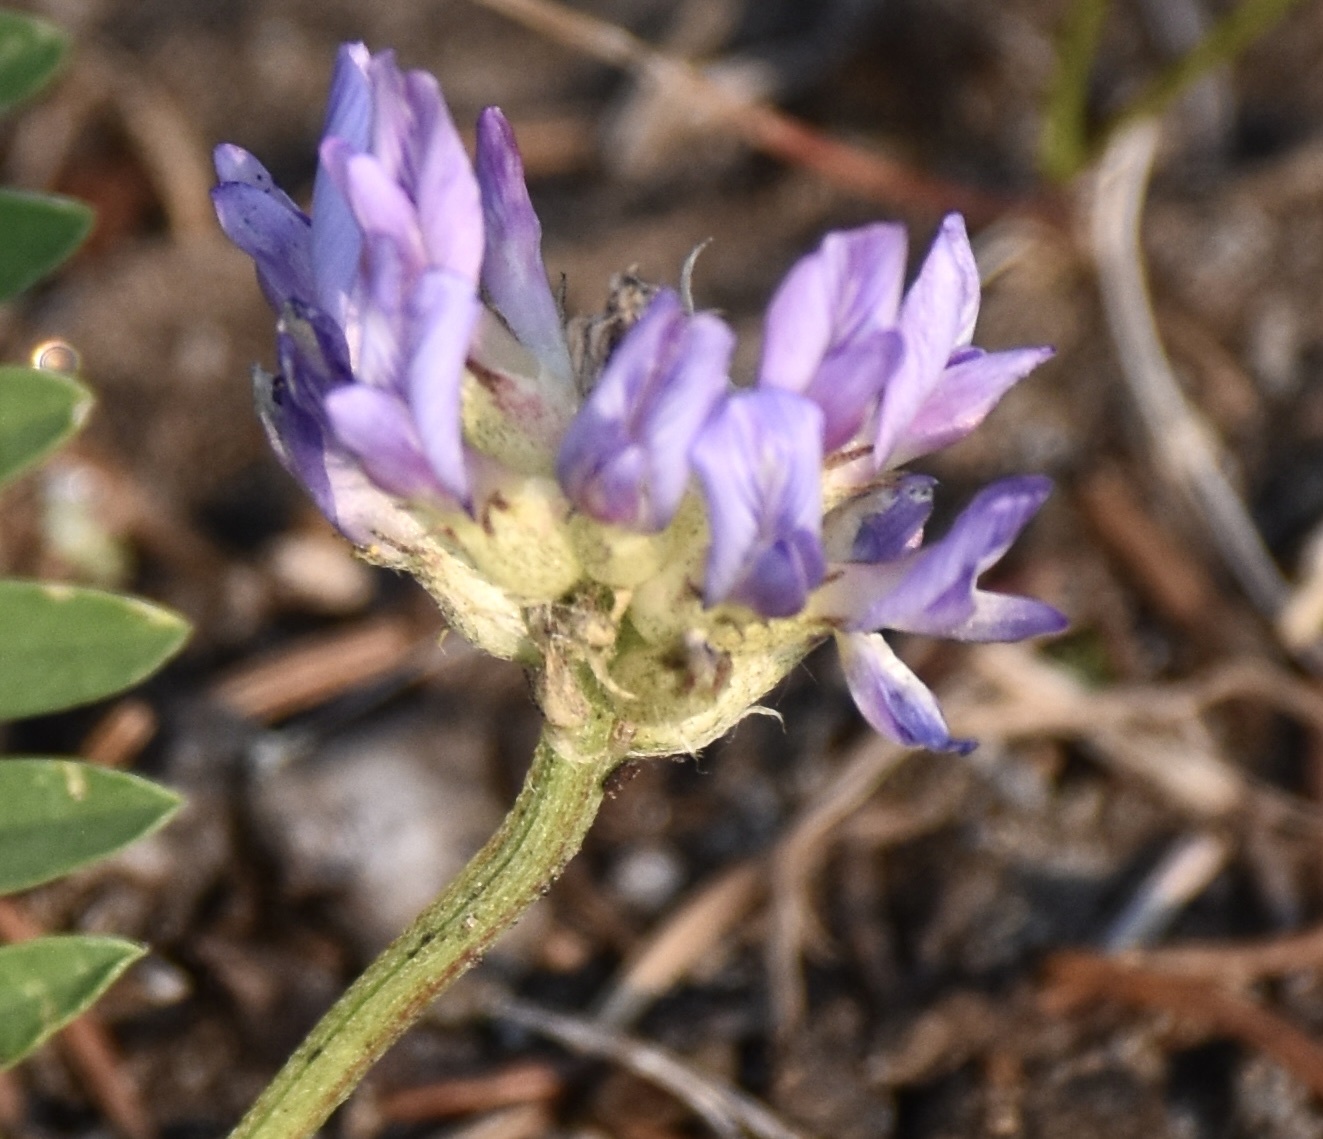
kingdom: Plantae
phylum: Tracheophyta
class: Magnoliopsida
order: Fabales
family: Fabaceae
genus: Astragalus
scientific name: Astragalus laxmannii
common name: Laxmann's milk-vetch
